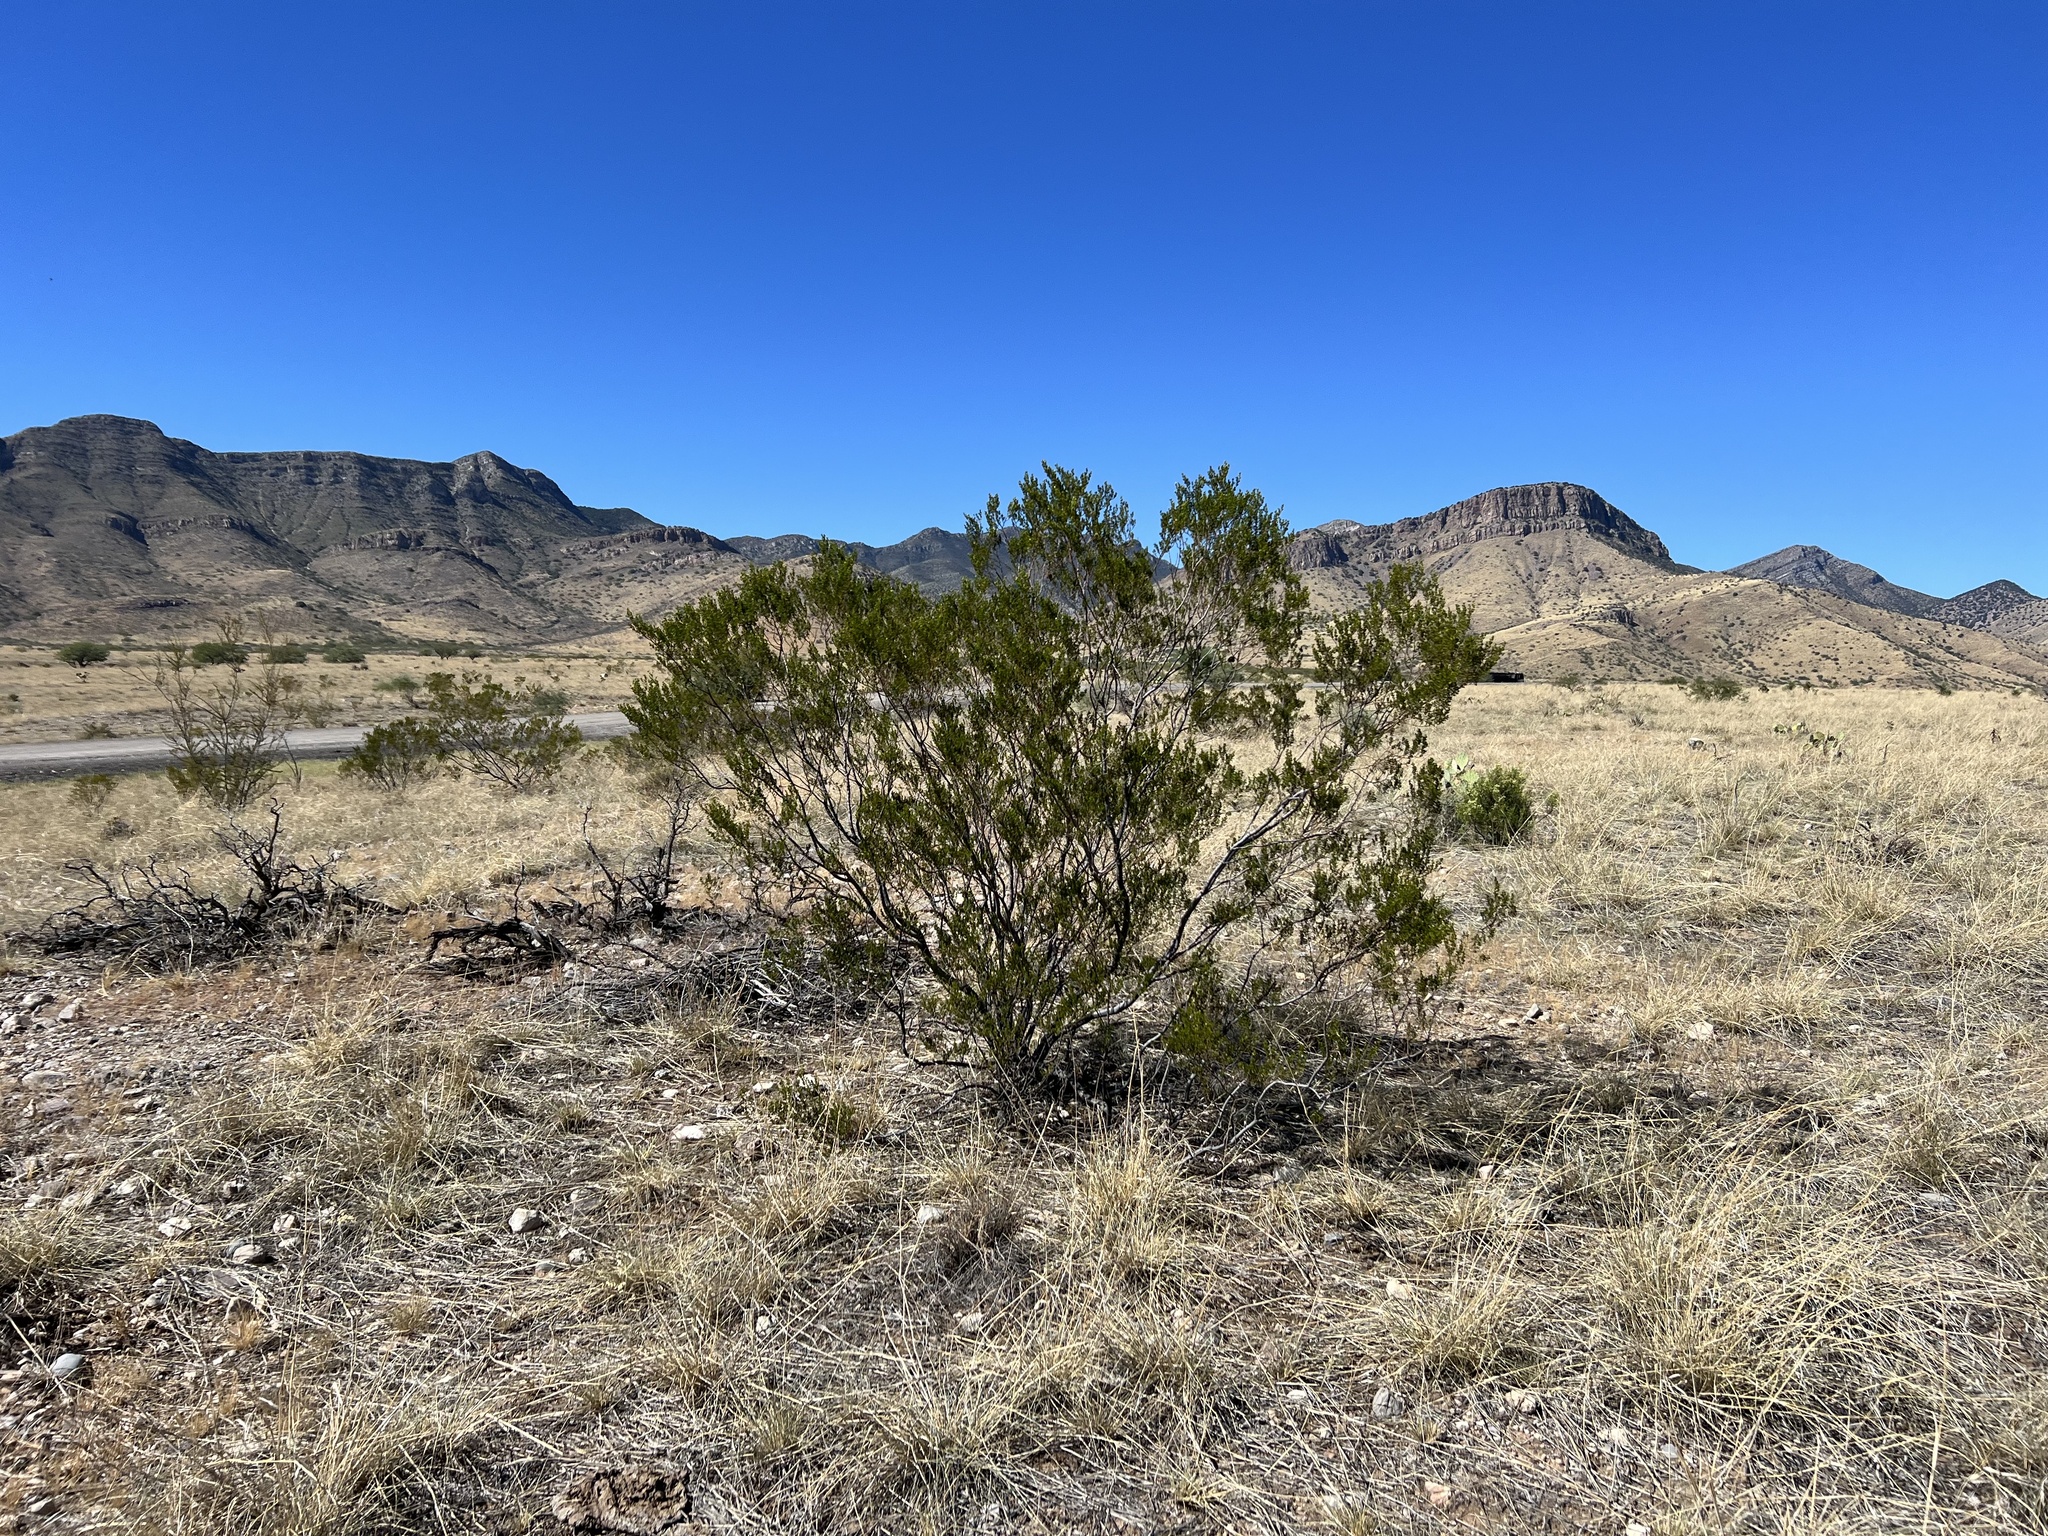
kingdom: Plantae
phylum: Tracheophyta
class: Magnoliopsida
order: Zygophyllales
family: Zygophyllaceae
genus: Larrea
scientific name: Larrea tridentata
